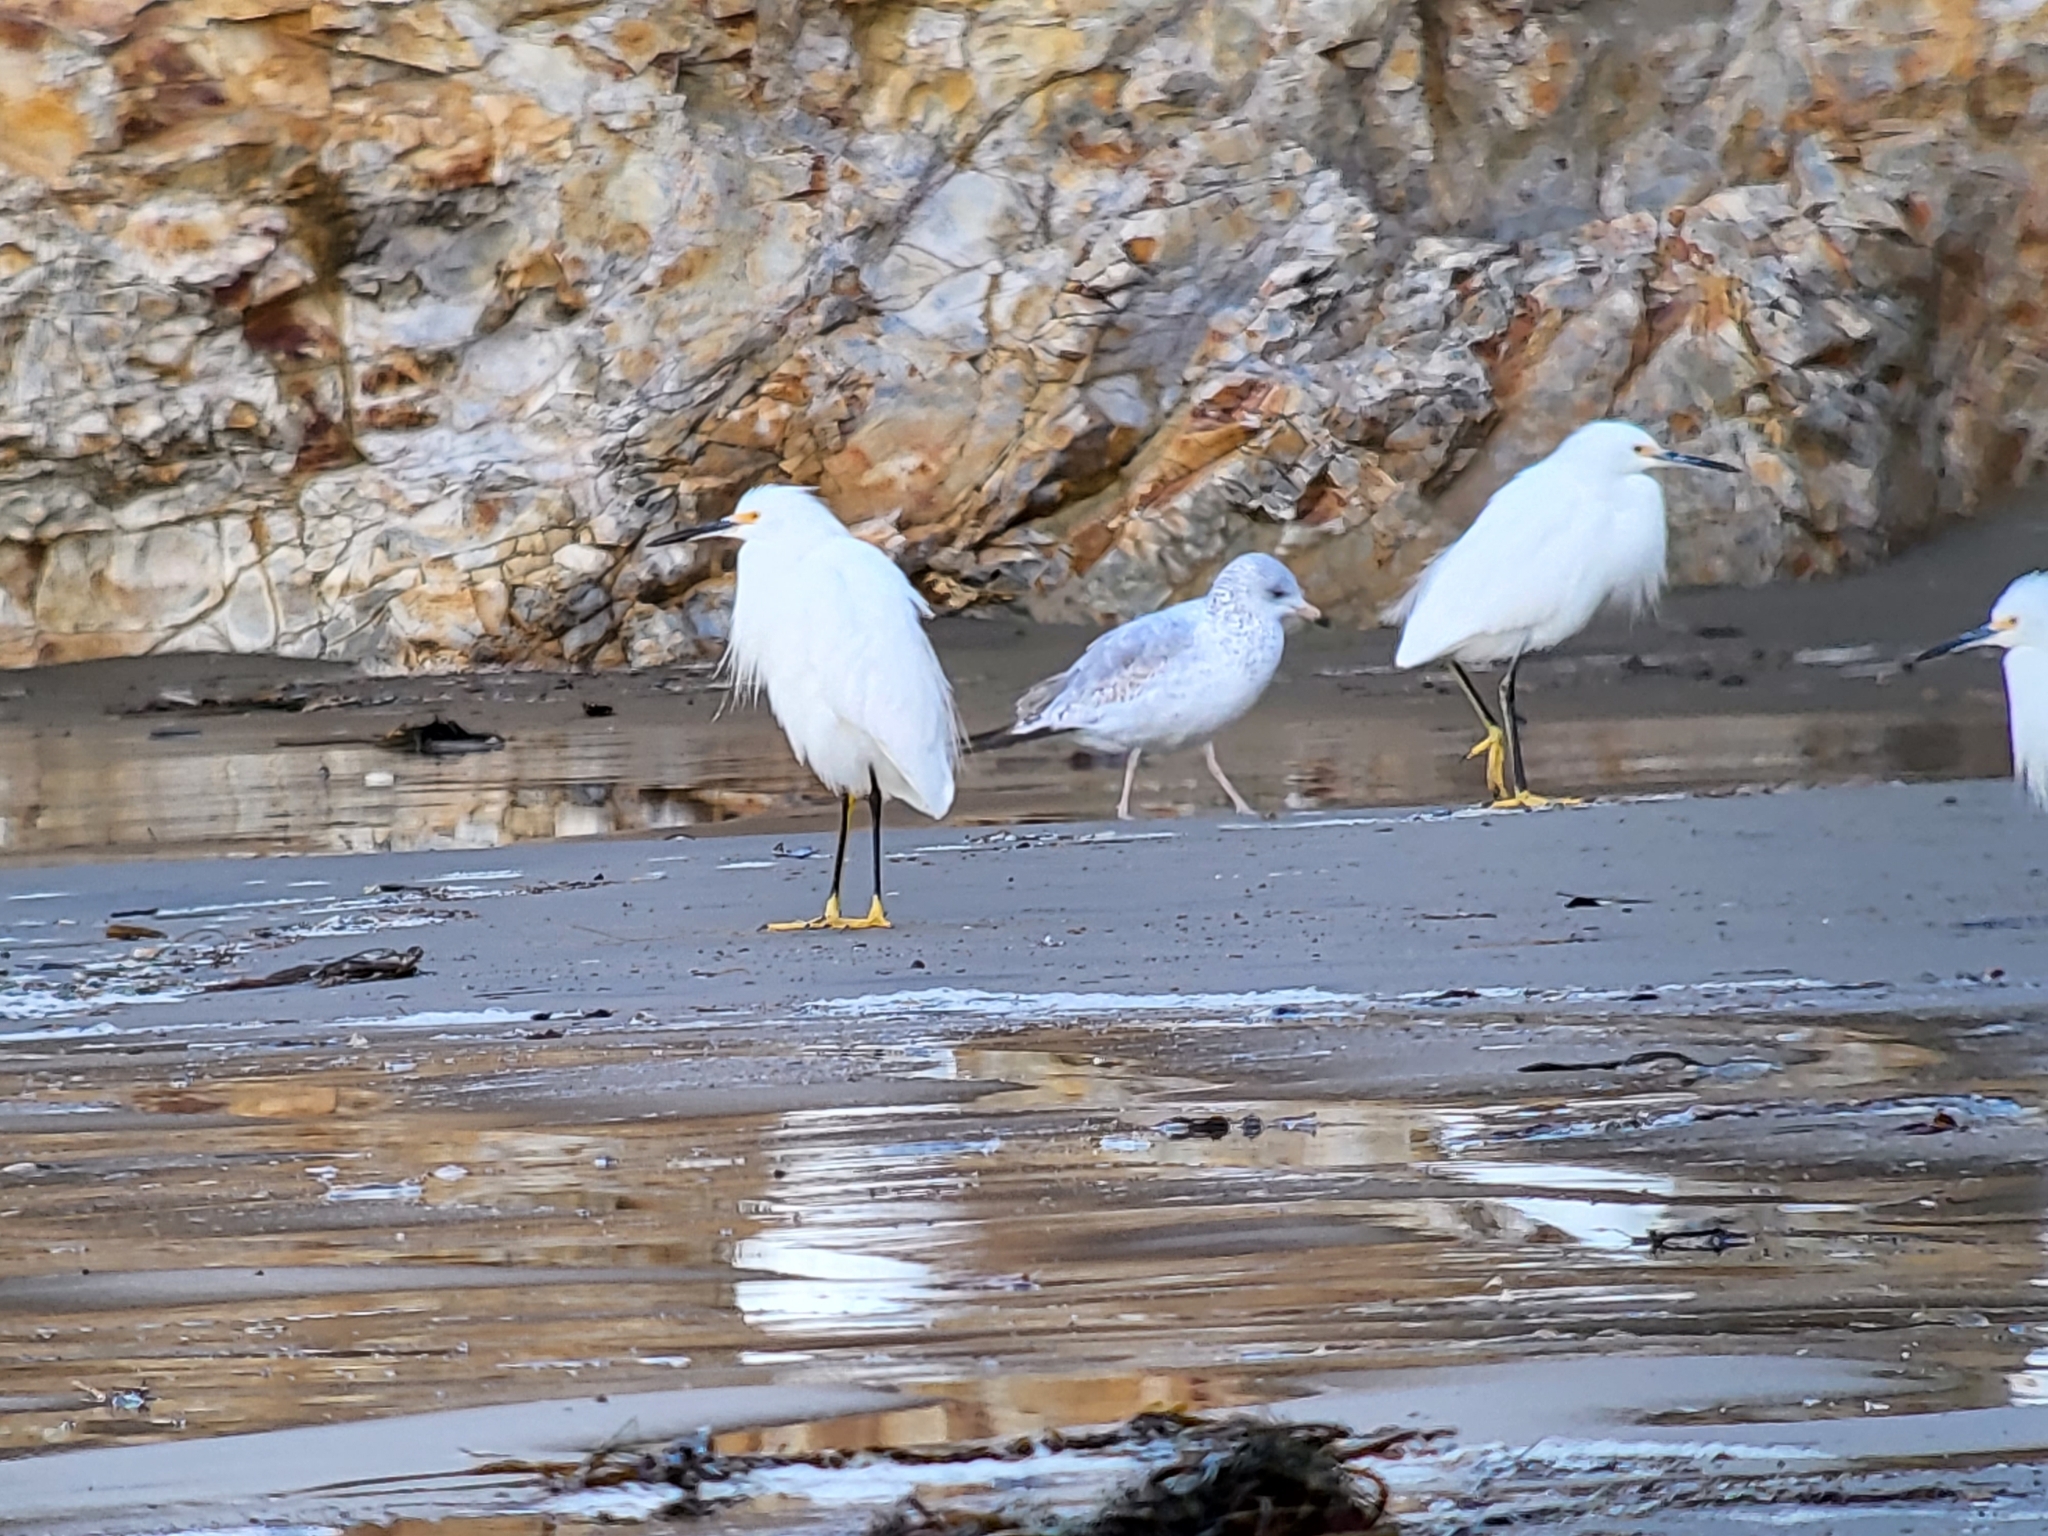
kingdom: Animalia
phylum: Chordata
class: Aves
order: Pelecaniformes
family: Ardeidae
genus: Egretta
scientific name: Egretta thula
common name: Snowy egret
